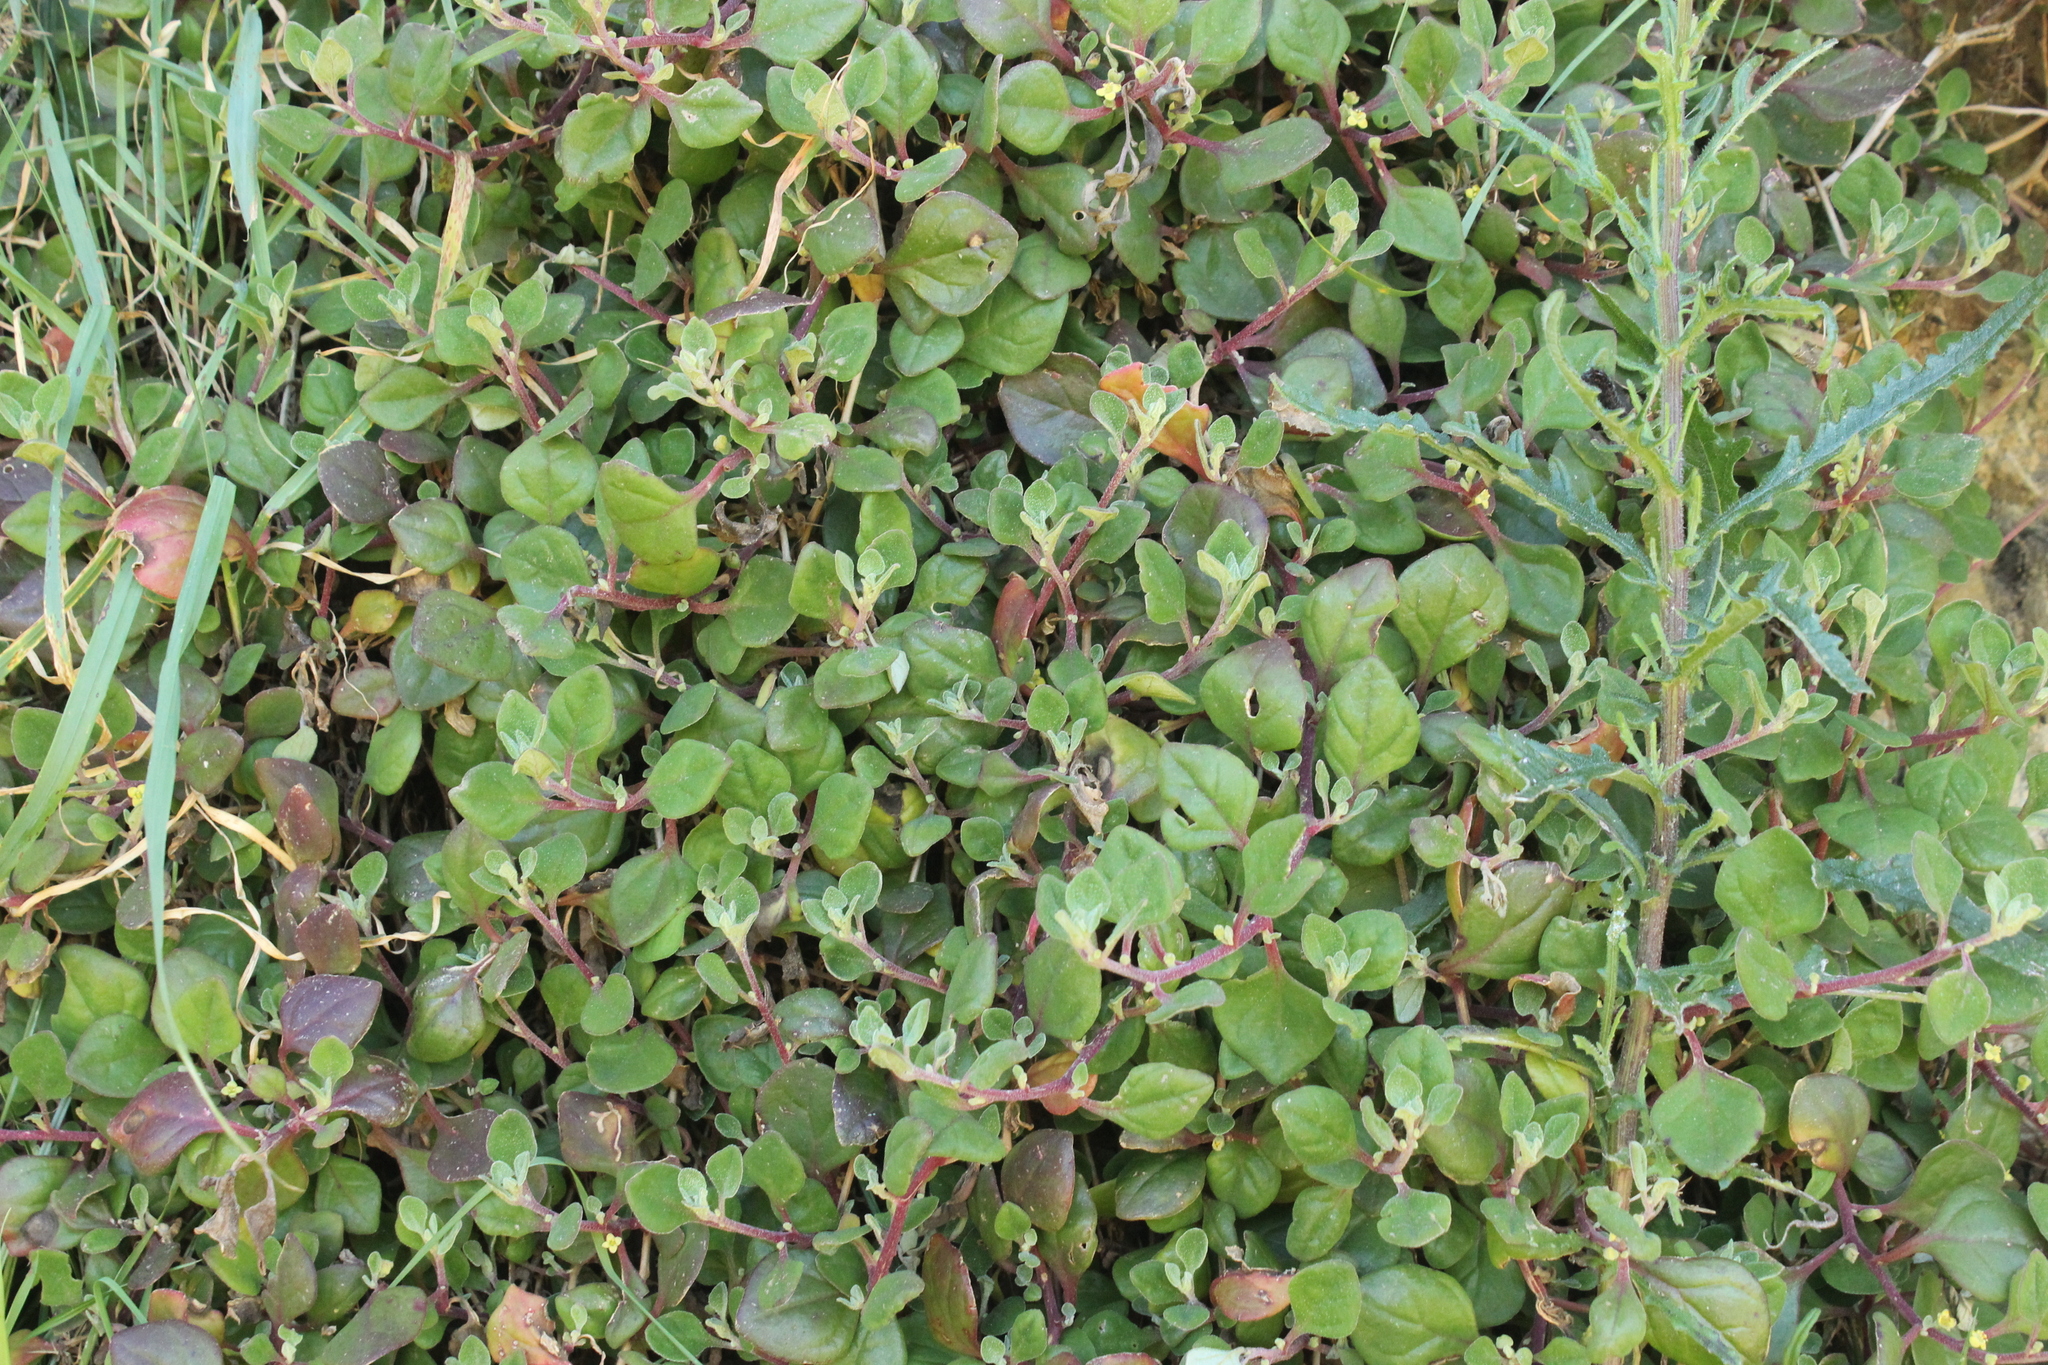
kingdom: Plantae
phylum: Tracheophyta
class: Magnoliopsida
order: Caryophyllales
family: Aizoaceae
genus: Tetragonia
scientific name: Tetragonia implexicoma
